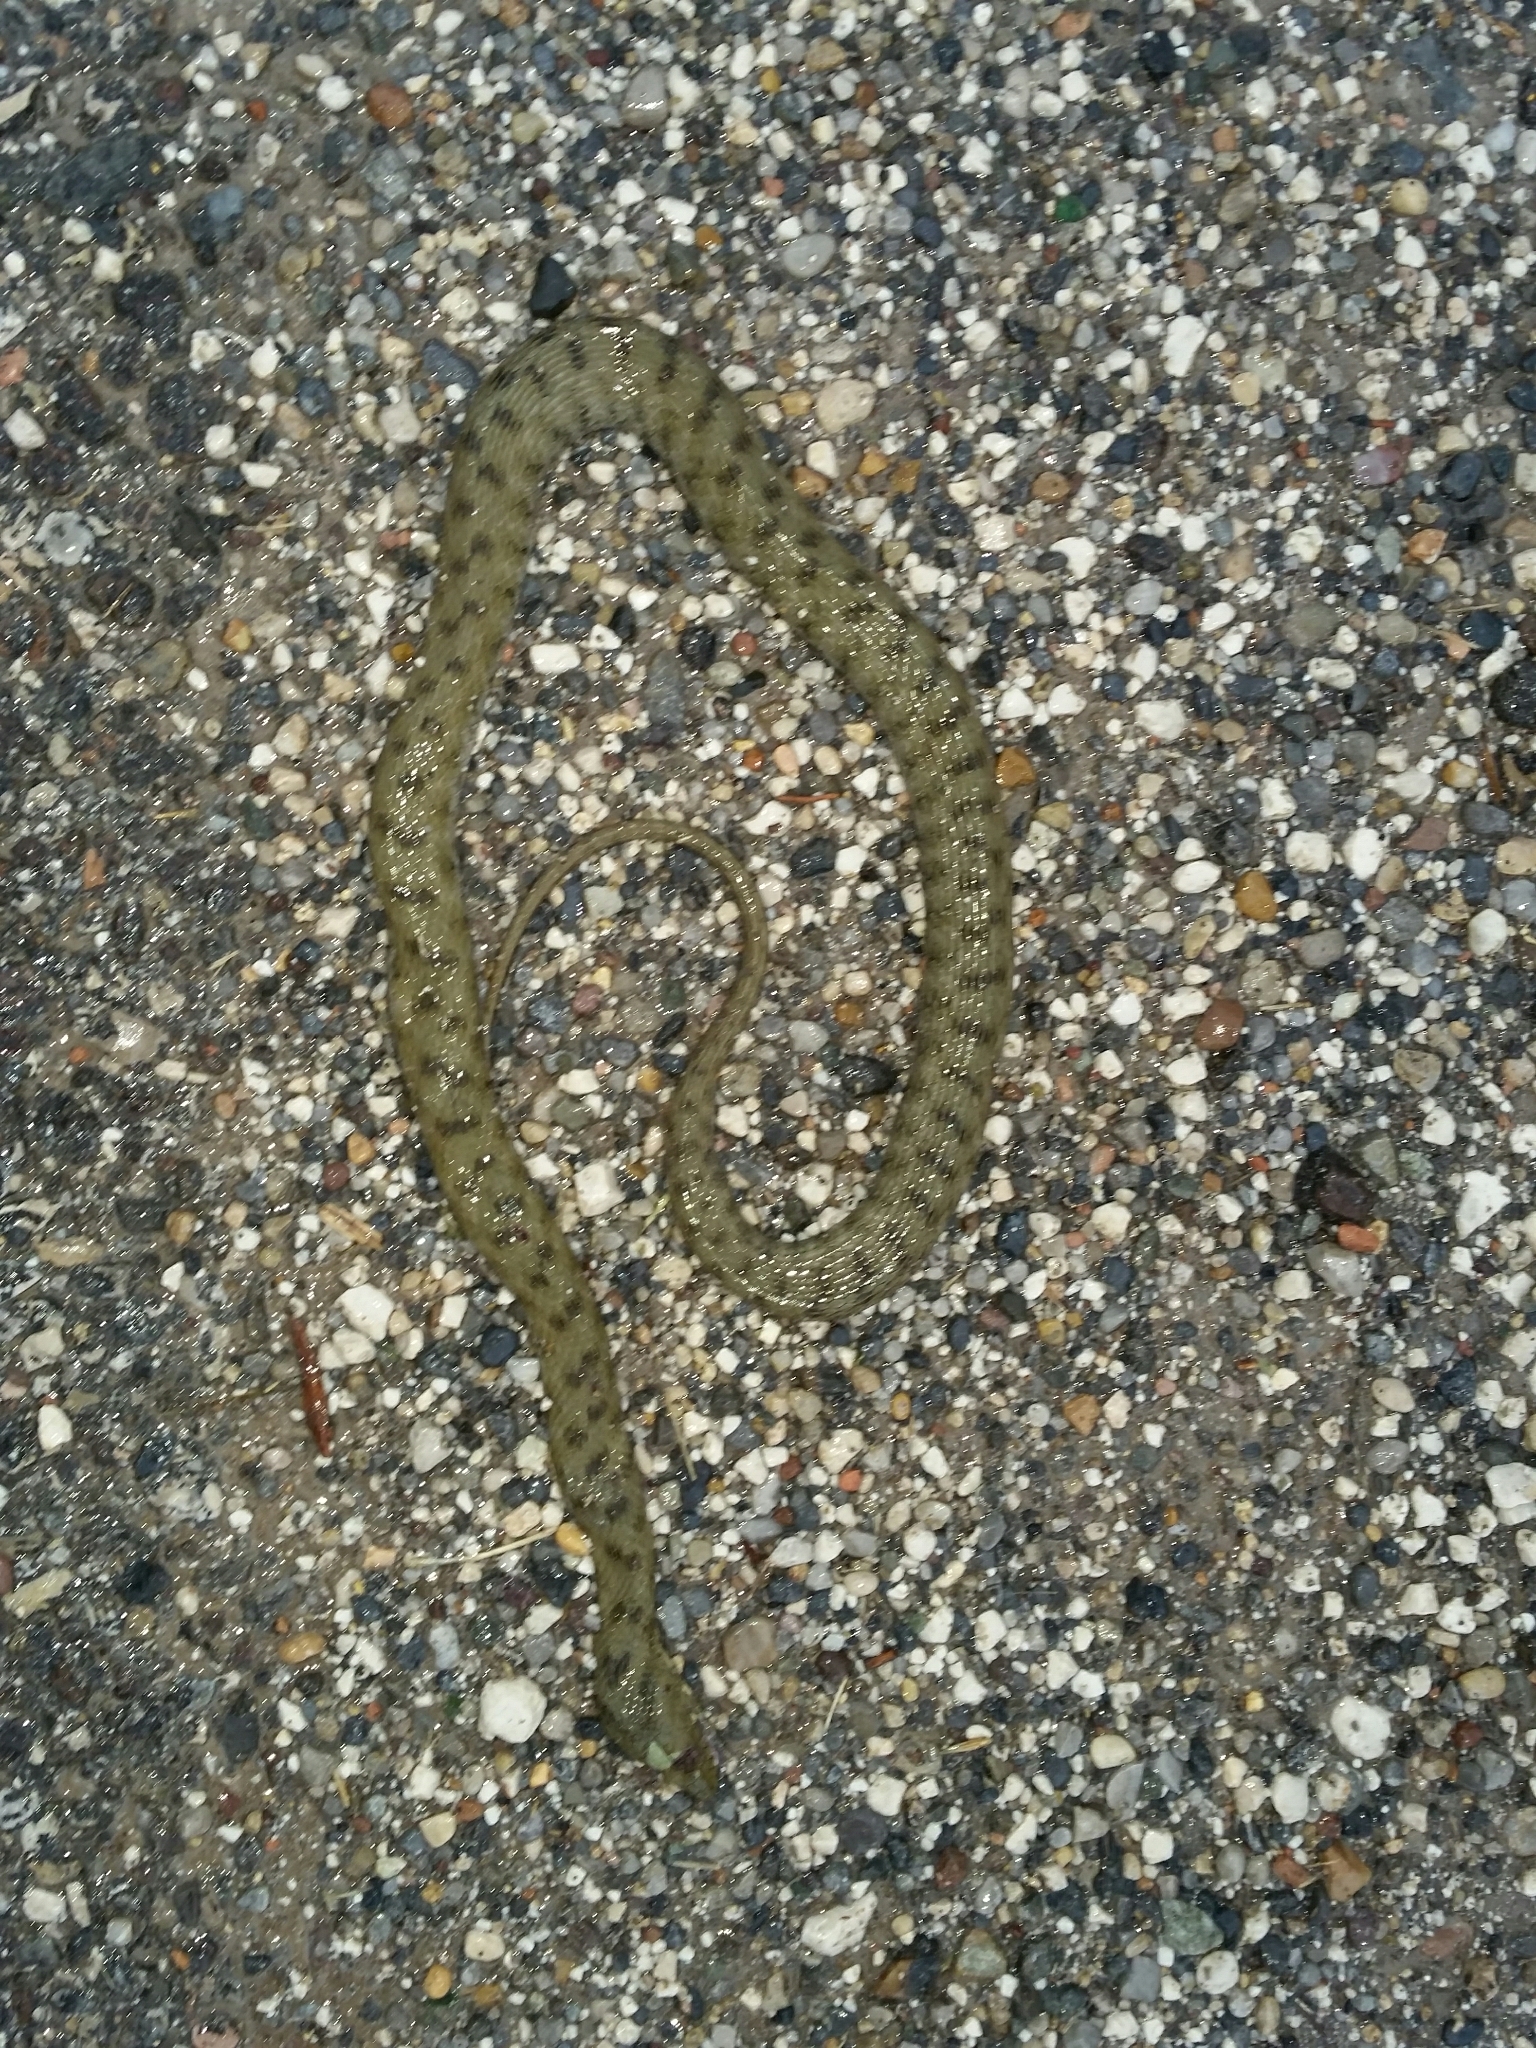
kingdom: Animalia
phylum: Chordata
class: Squamata
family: Colubridae
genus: Natrix
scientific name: Natrix tessellata
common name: Dice snake
